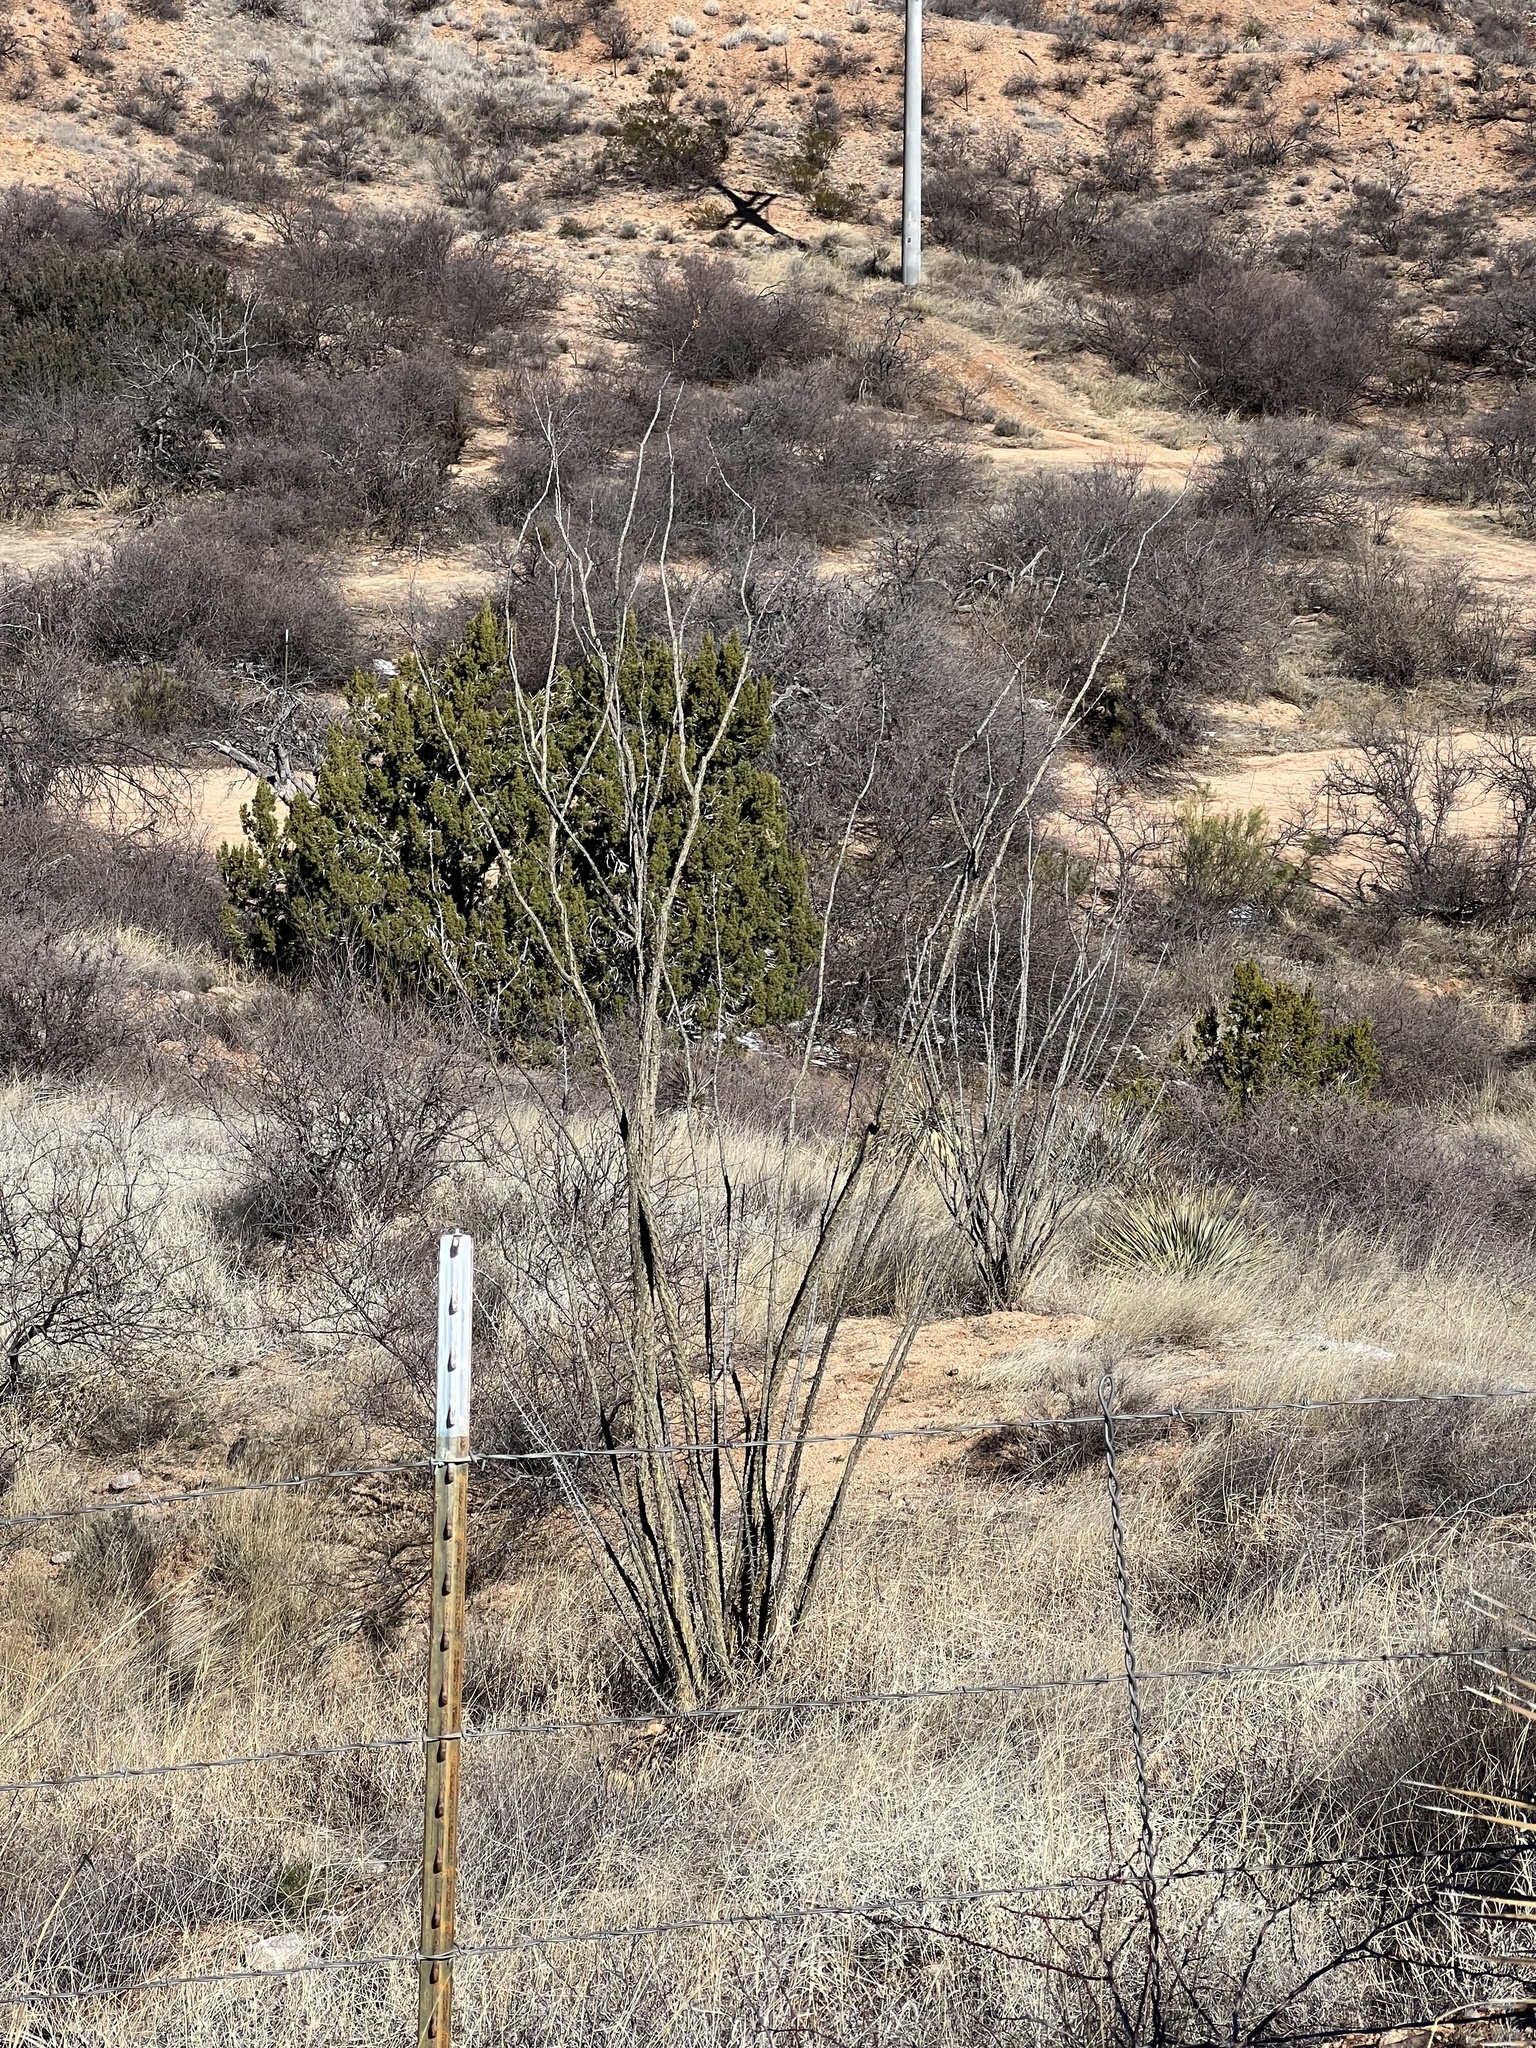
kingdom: Plantae
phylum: Tracheophyta
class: Magnoliopsida
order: Ericales
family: Fouquieriaceae
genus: Fouquieria
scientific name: Fouquieria splendens
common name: Vine-cactus
